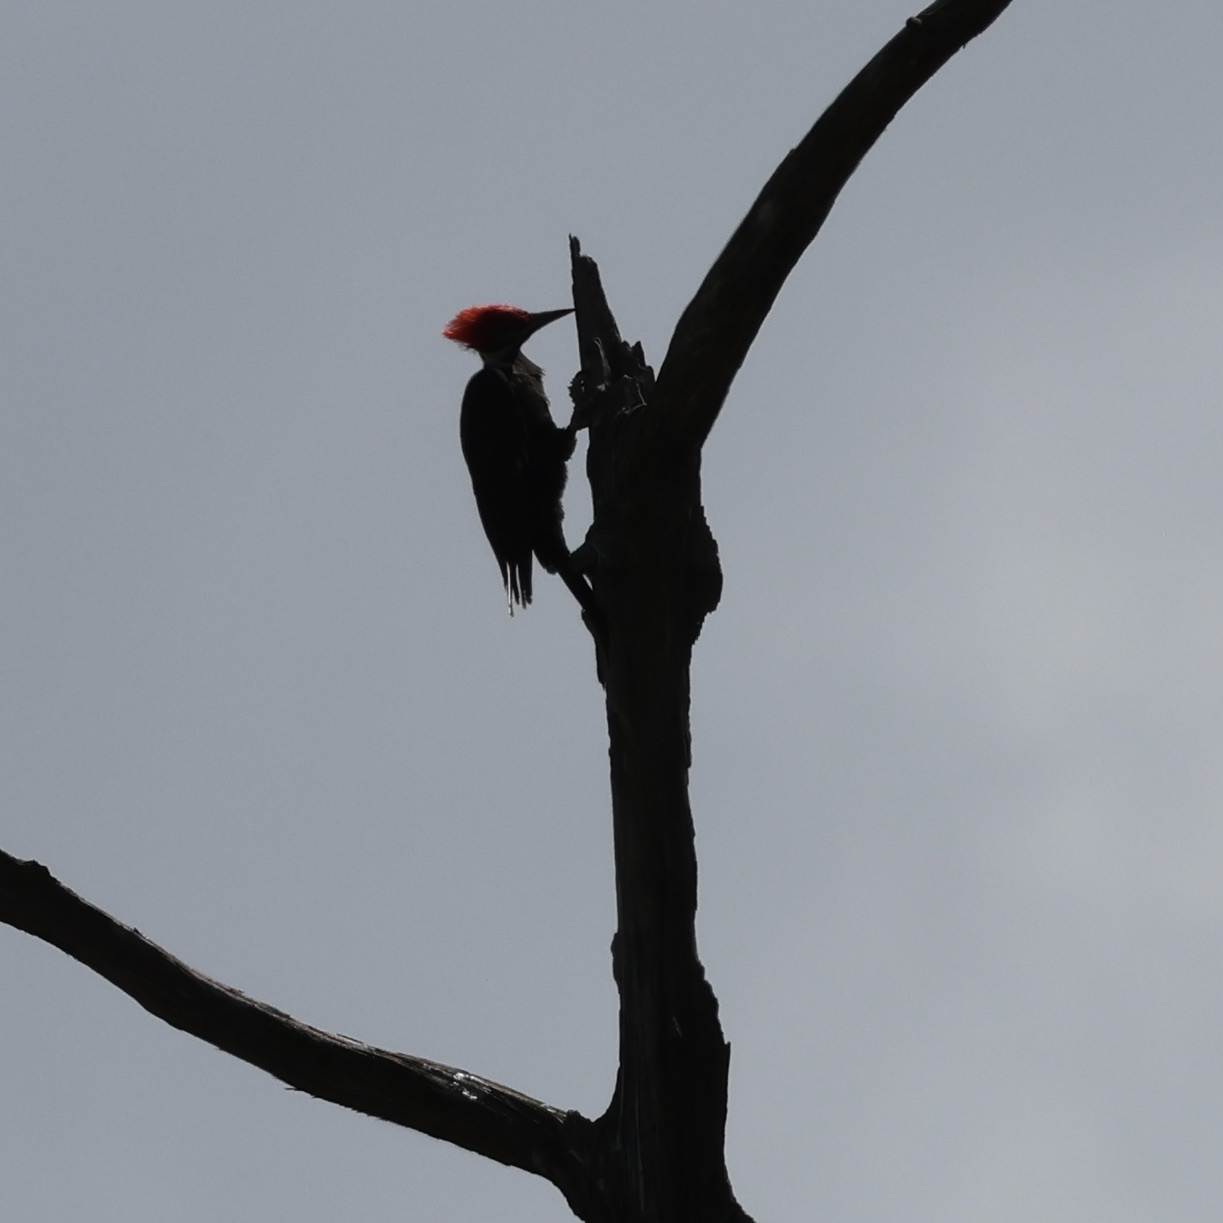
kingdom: Animalia
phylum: Chordata
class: Aves
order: Piciformes
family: Picidae
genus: Dryocopus
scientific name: Dryocopus pileatus
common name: Pileated woodpecker
